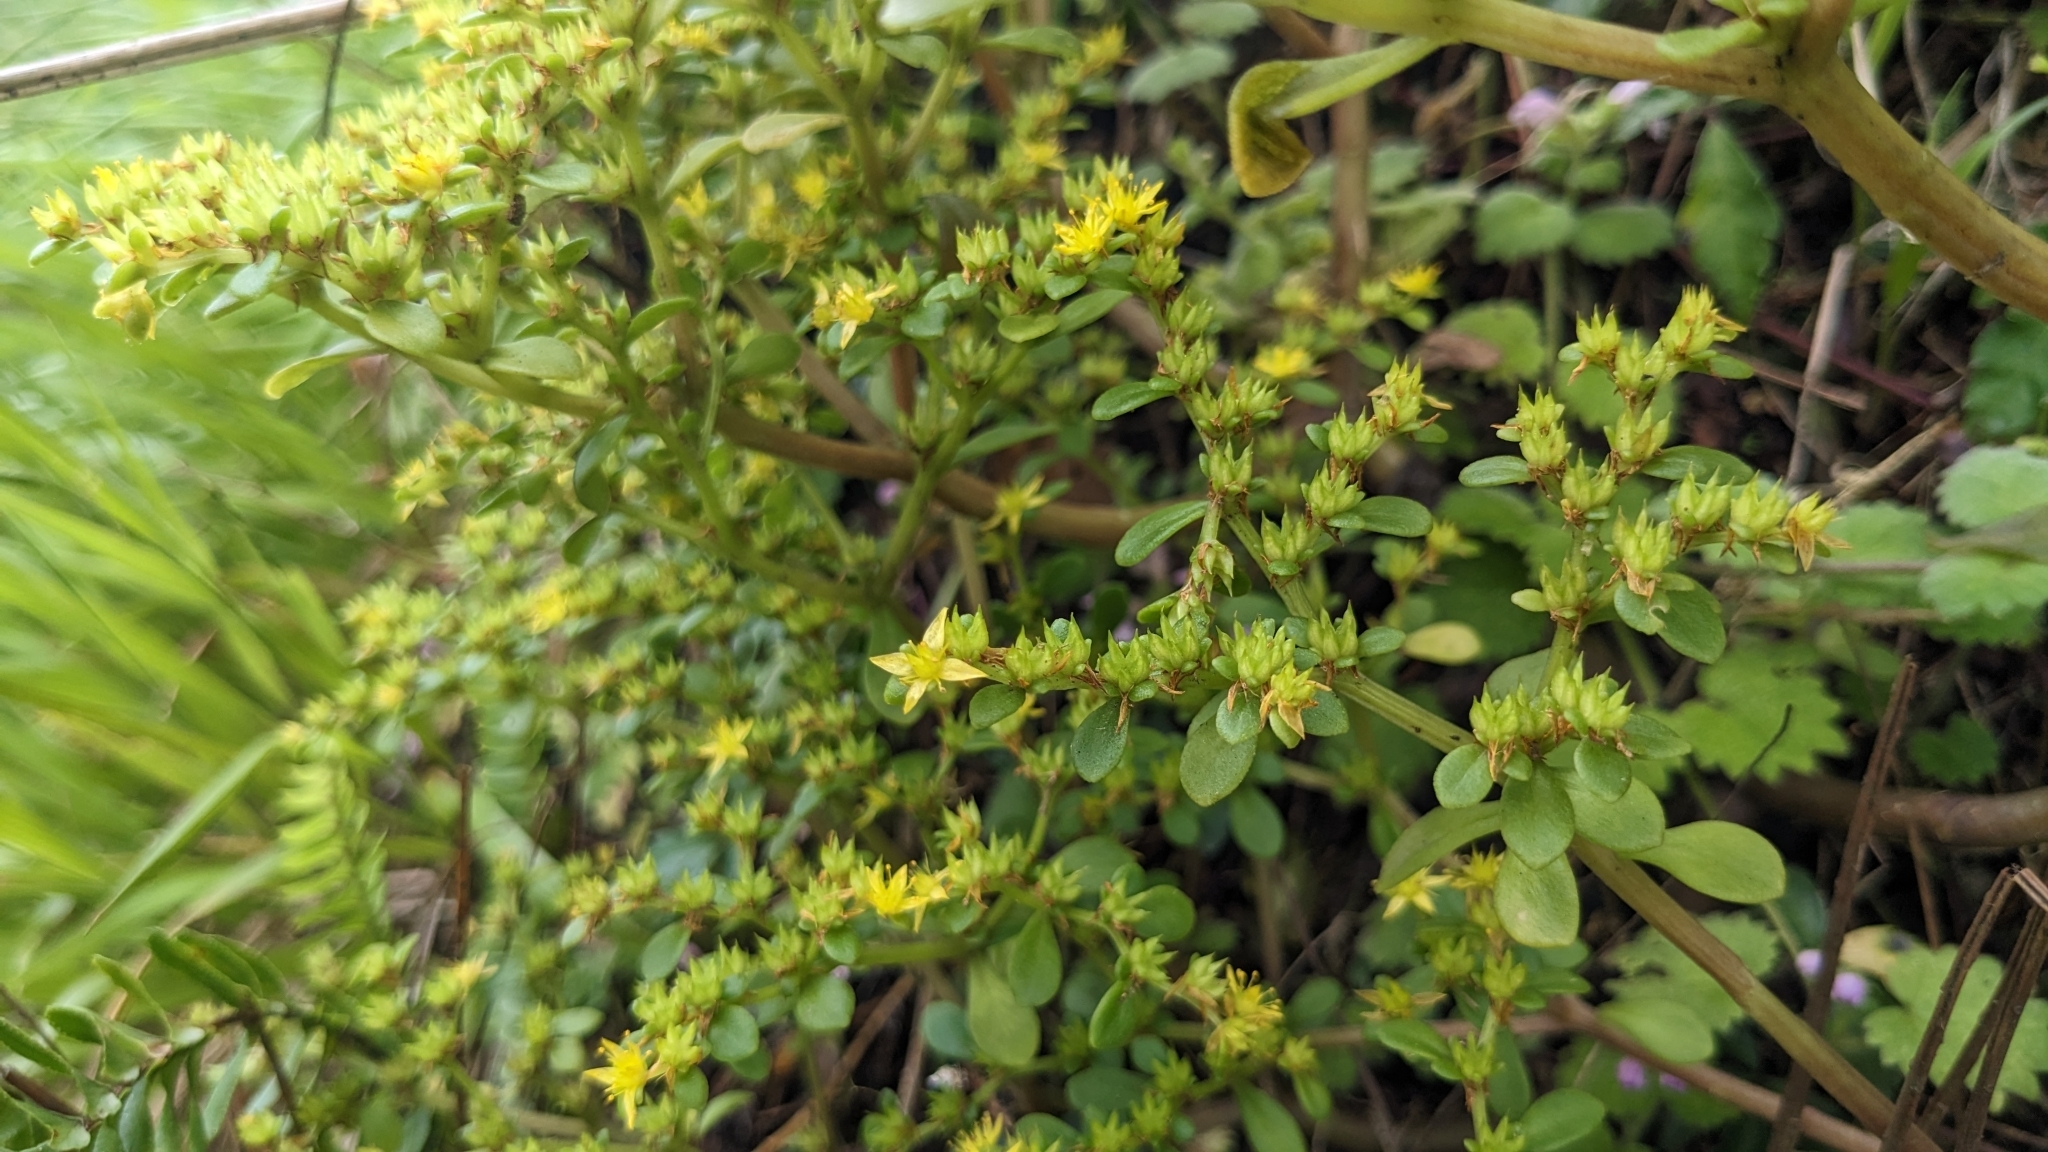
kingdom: Plantae
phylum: Tracheophyta
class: Magnoliopsida
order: Saxifragales
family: Crassulaceae
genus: Sedum
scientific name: Sedum formosanum
